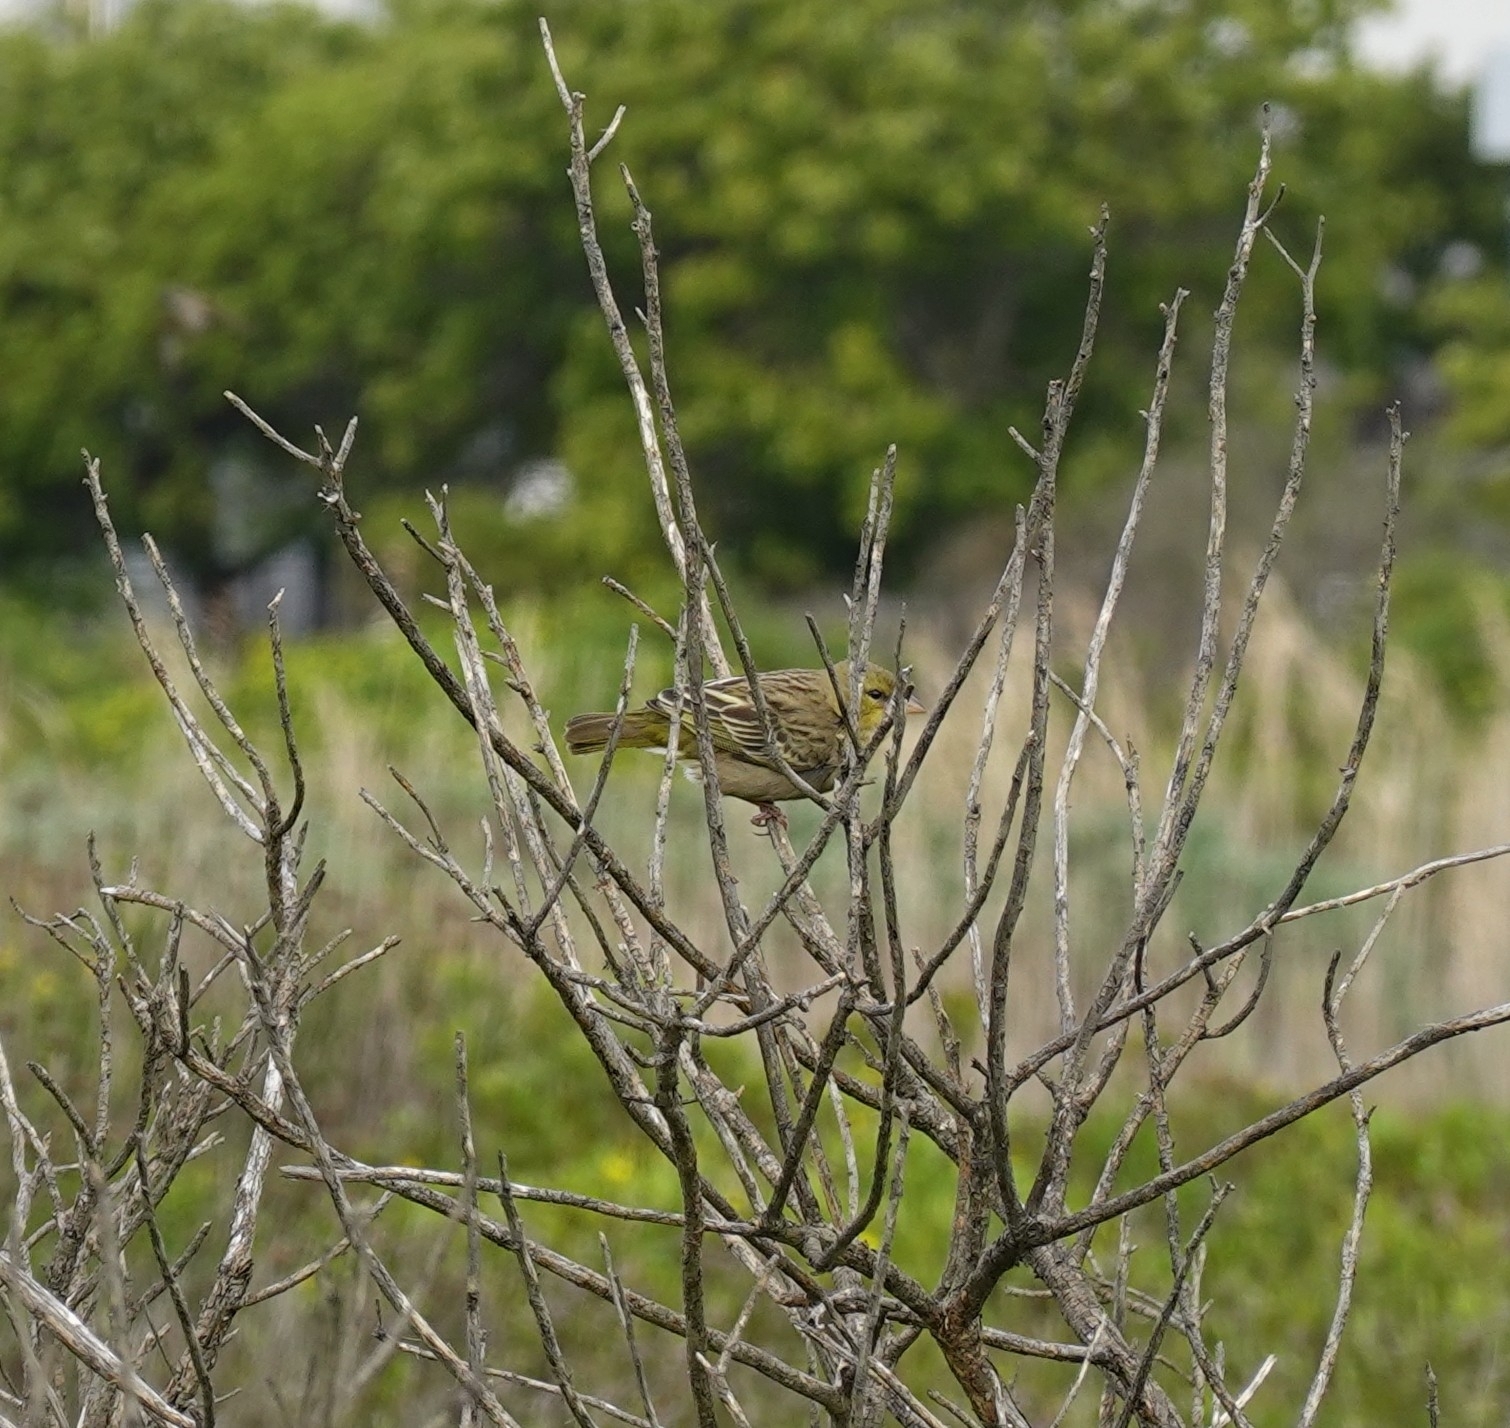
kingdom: Animalia
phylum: Chordata
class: Aves
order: Passeriformes
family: Ploceidae
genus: Ploceus
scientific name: Ploceus capensis
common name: Cape weaver
